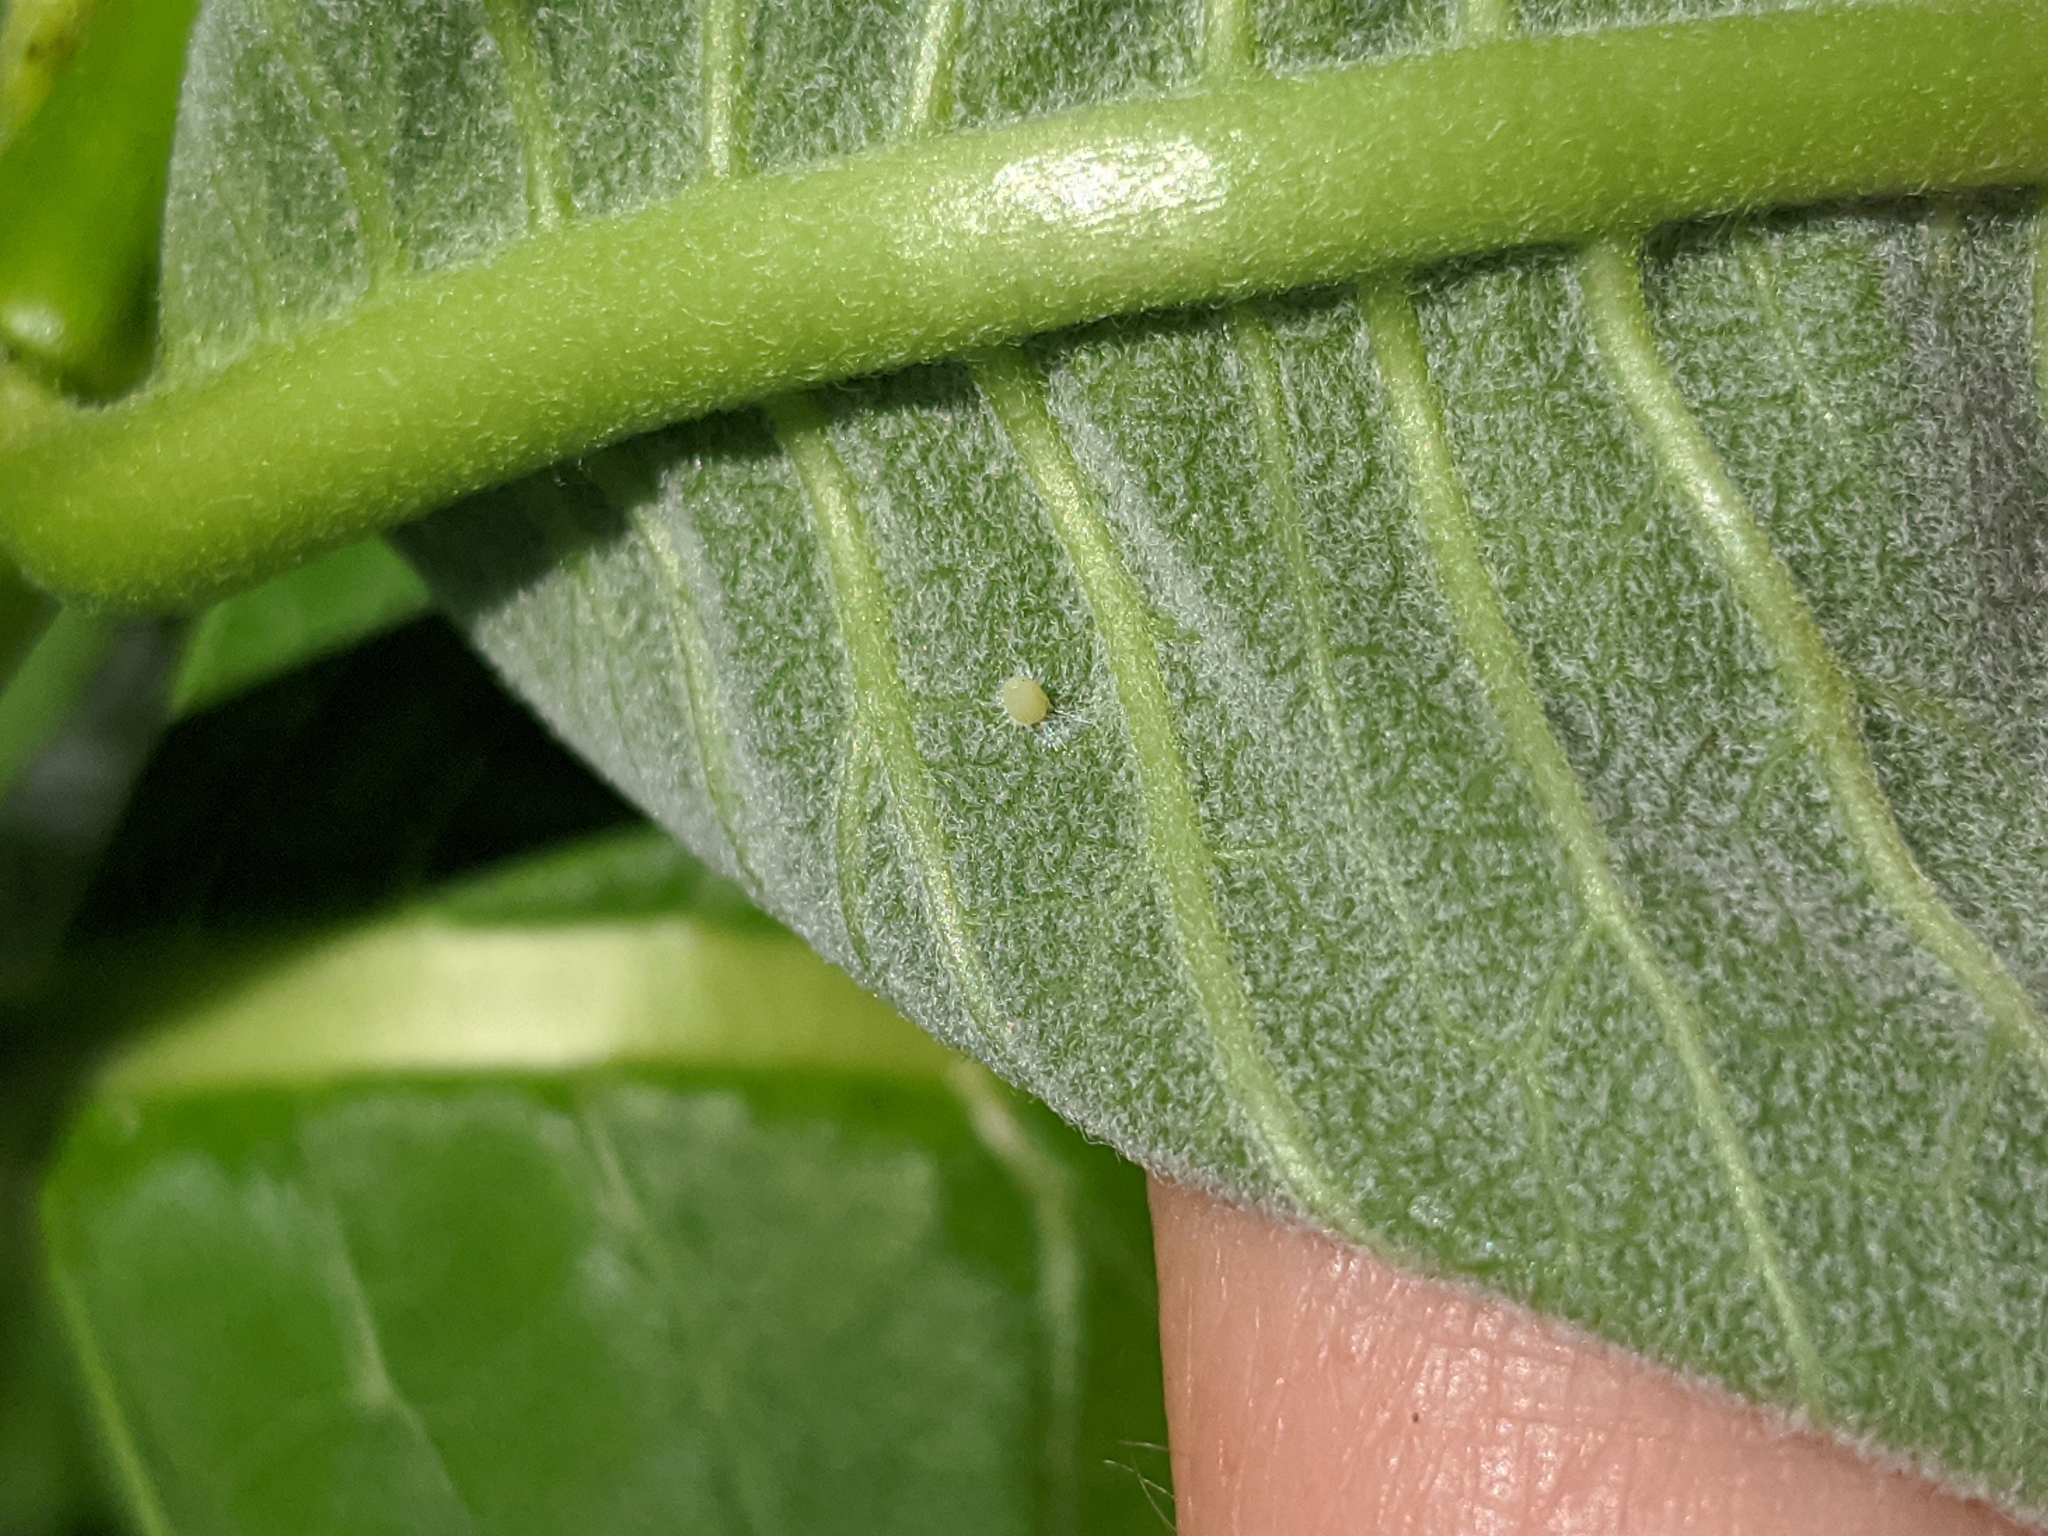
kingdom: Animalia
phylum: Arthropoda
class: Insecta
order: Lepidoptera
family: Nymphalidae
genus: Danaus
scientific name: Danaus plexippus
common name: Monarch
